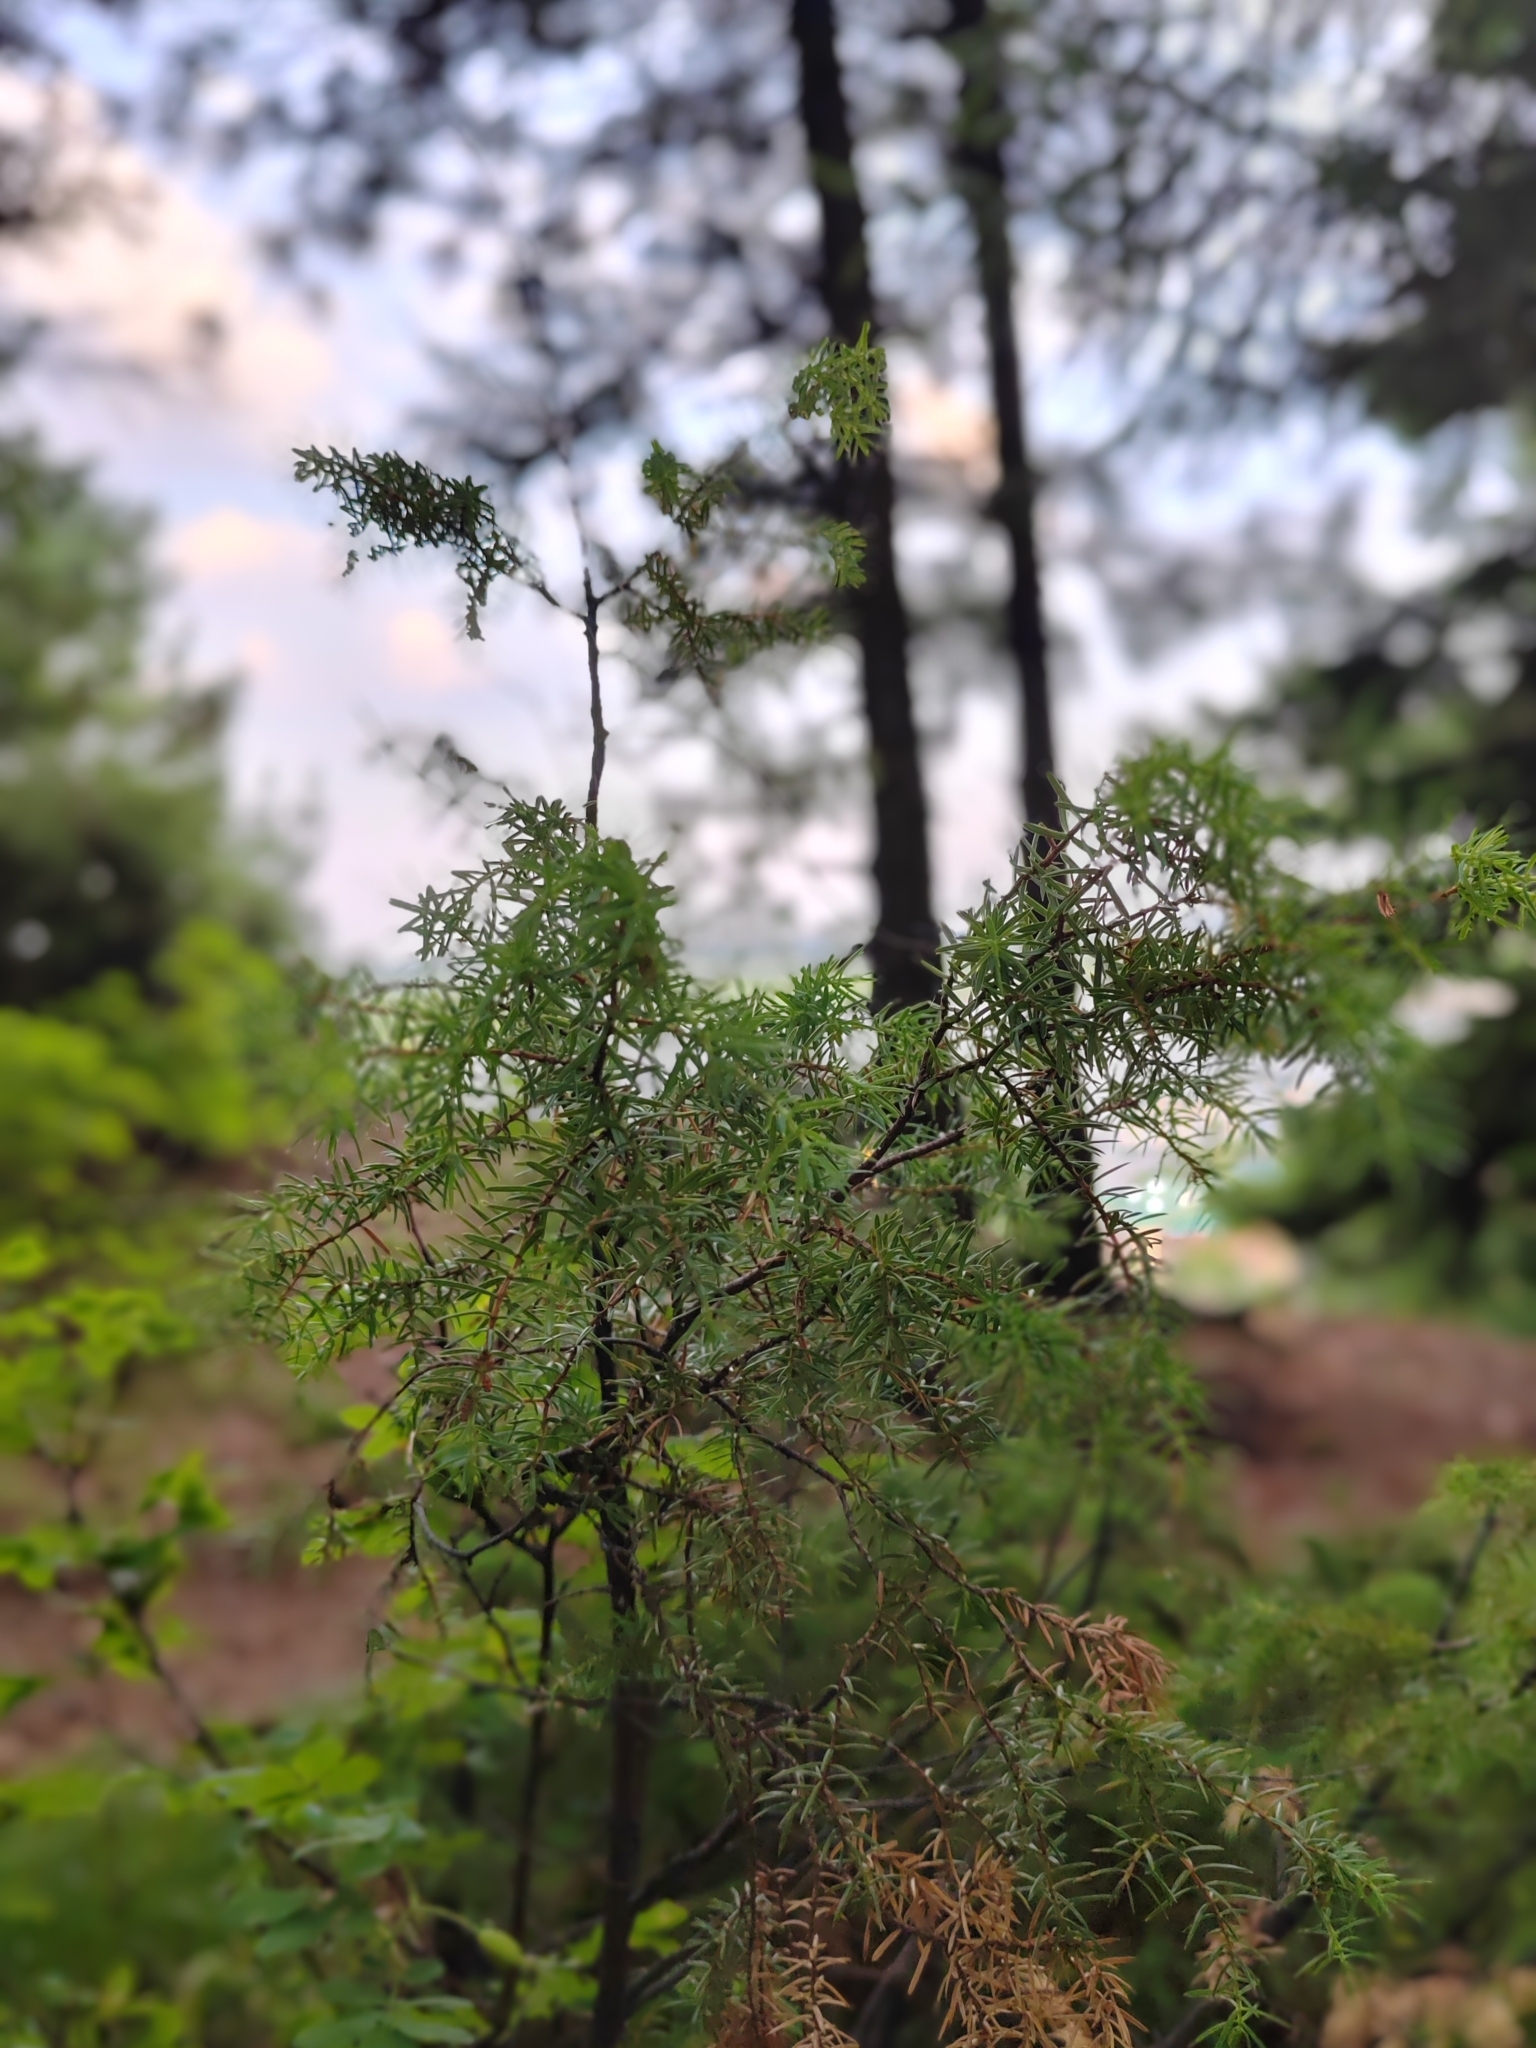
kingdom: Plantae
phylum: Tracheophyta
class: Pinopsida
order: Pinales
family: Cupressaceae
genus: Juniperus
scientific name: Juniperus communis
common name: Common juniper
